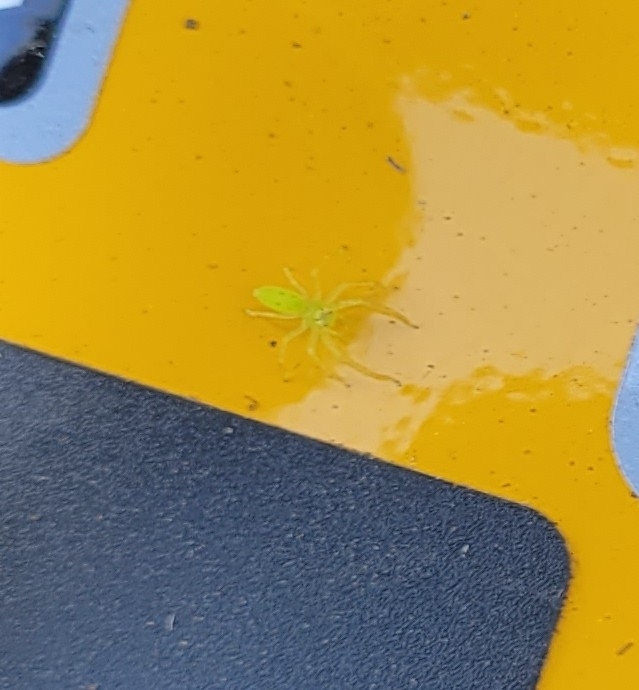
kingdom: Animalia
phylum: Arthropoda
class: Arachnida
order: Araneae
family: Salticidae
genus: Lyssomanes
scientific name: Lyssomanes viridis
